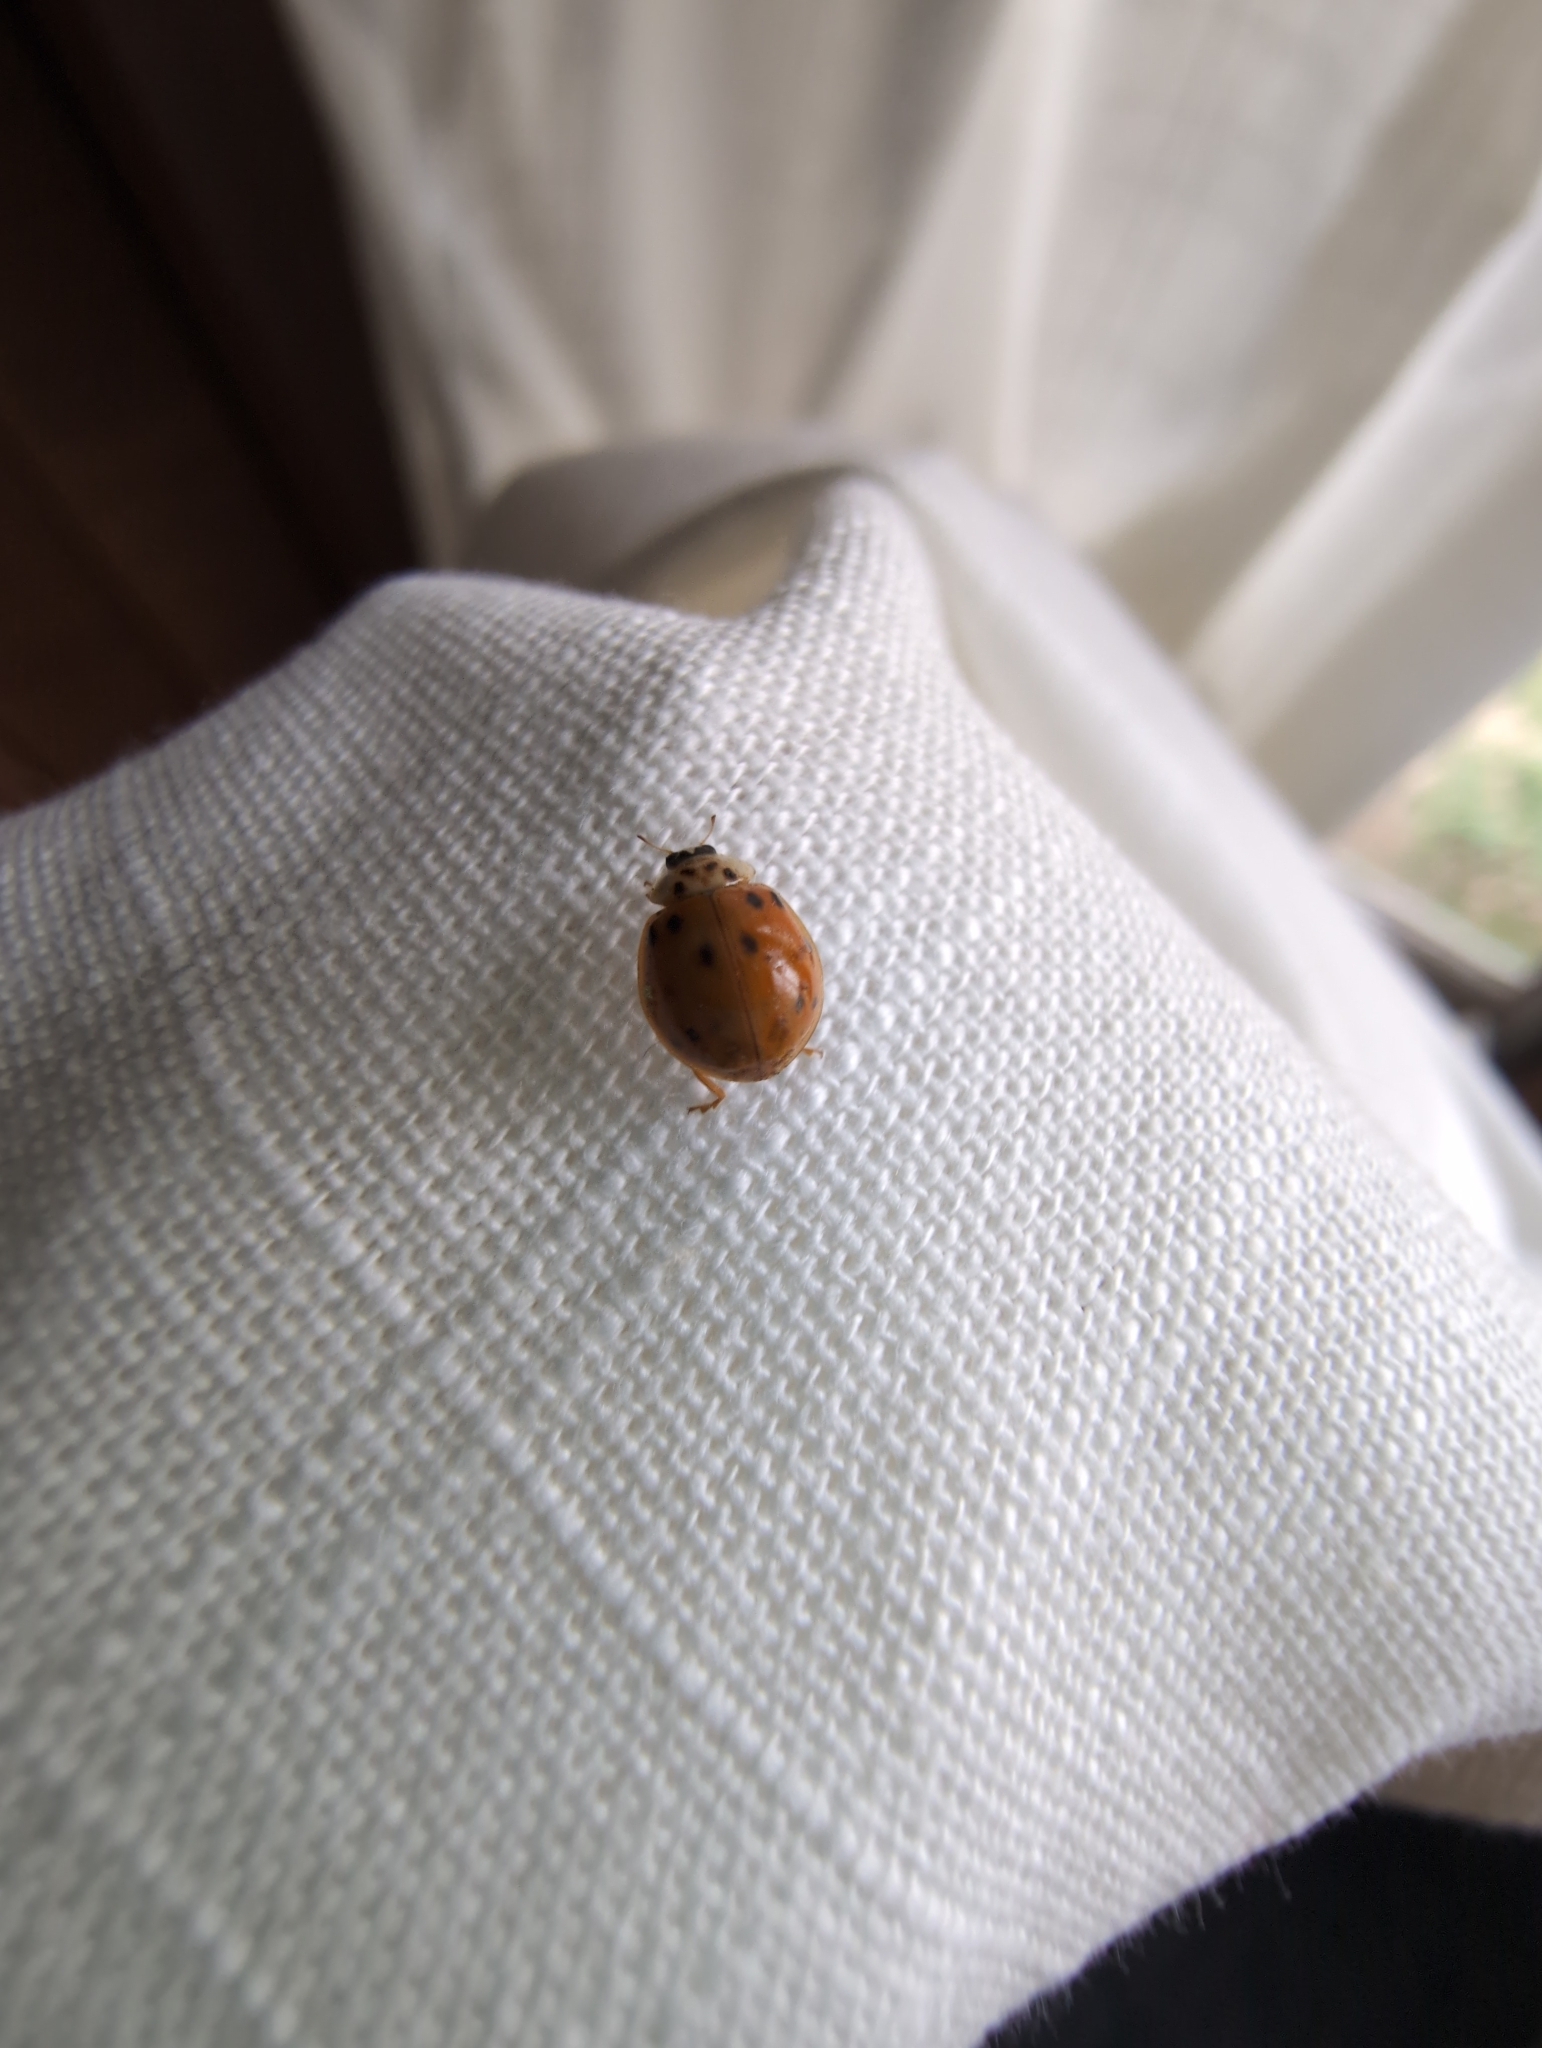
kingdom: Animalia
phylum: Arthropoda
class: Insecta
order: Coleoptera
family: Coccinellidae
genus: Harmonia
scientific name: Harmonia axyridis
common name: Harlequin ladybird
